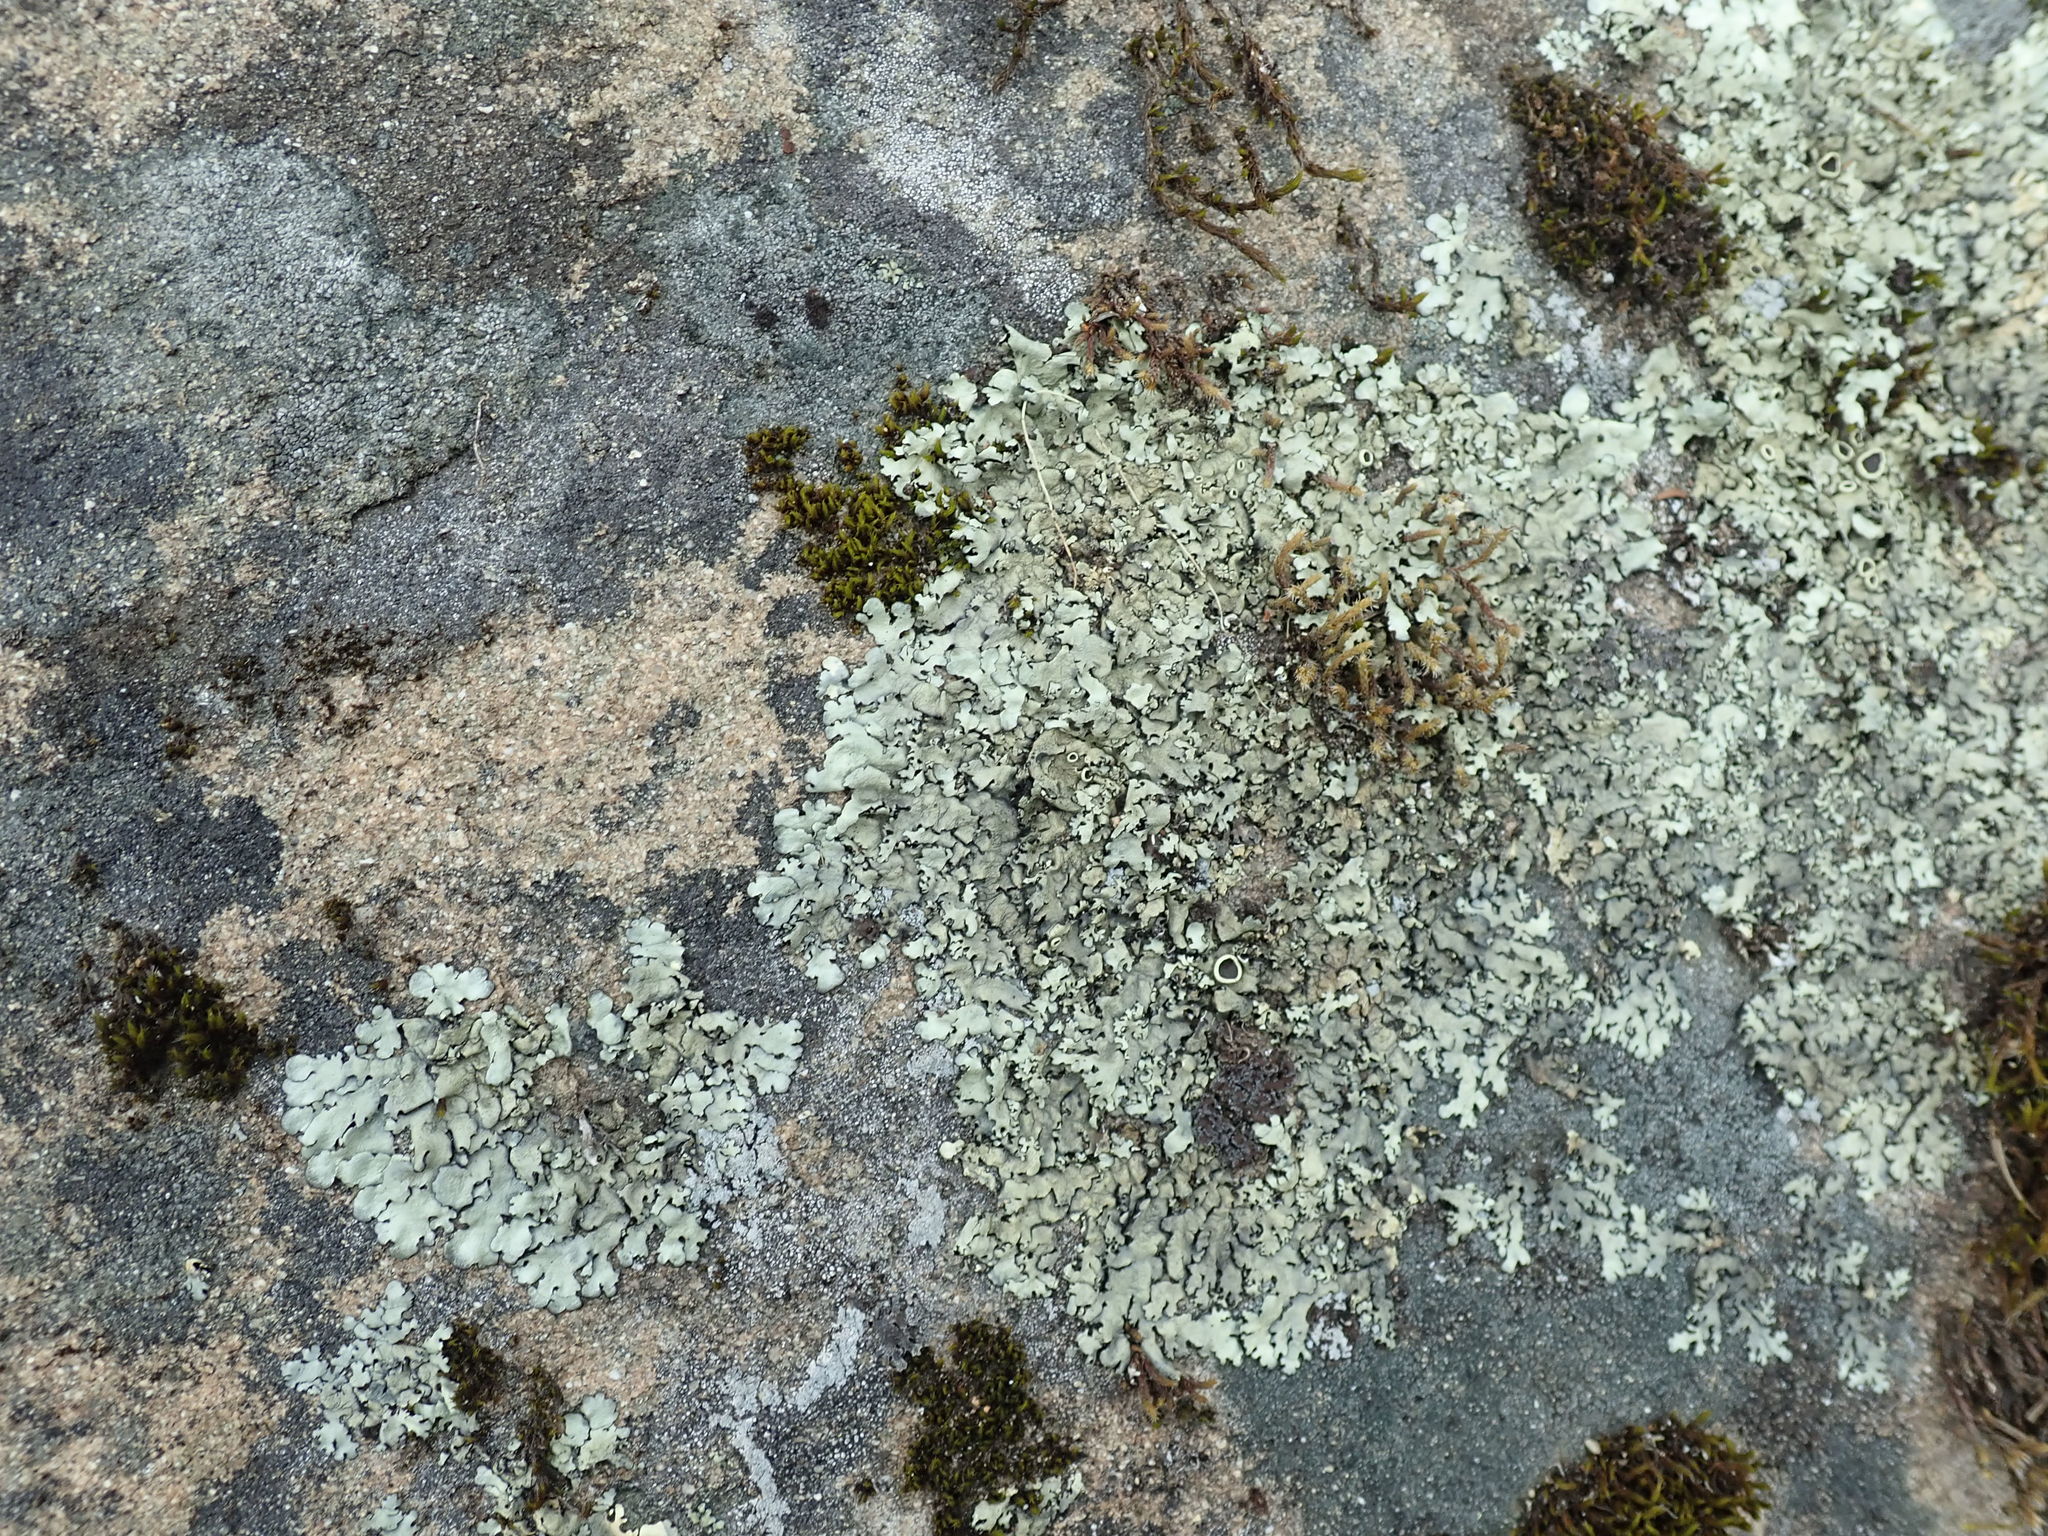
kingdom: Fungi
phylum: Ascomycota
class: Lecanoromycetes
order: Lecanorales
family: Parmeliaceae
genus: Xanthoparmelia
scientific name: Xanthoparmelia cumberlandia
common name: Cumberland rock shield
